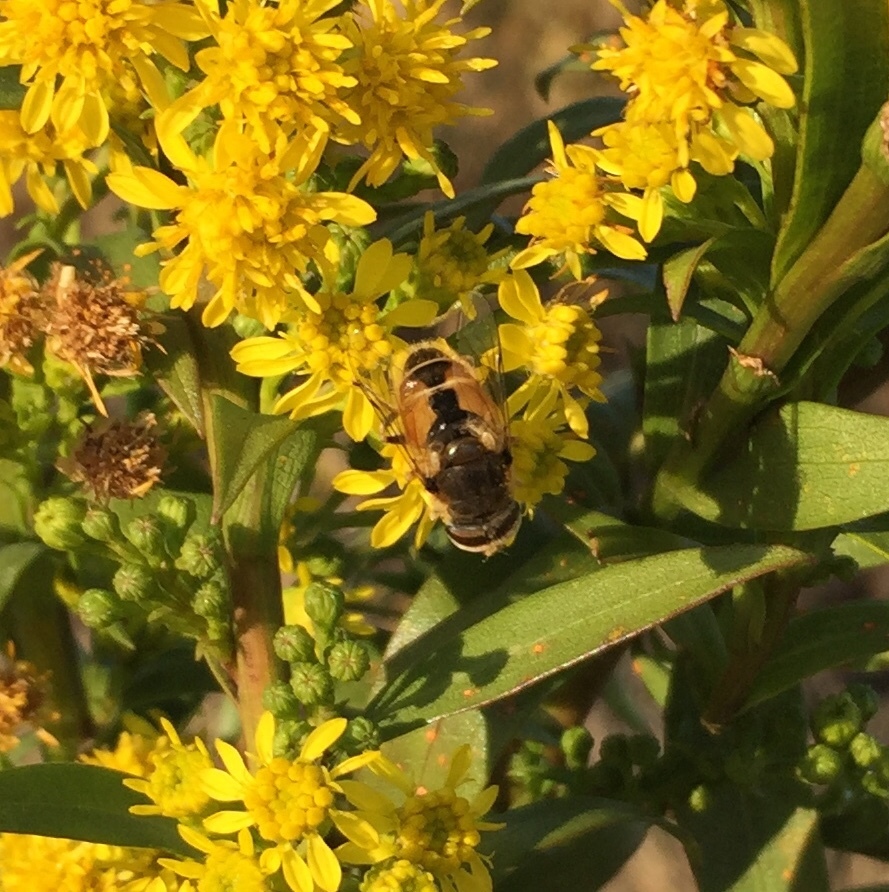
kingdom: Animalia
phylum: Arthropoda
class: Insecta
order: Diptera
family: Syrphidae
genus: Eristalis
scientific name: Eristalis arbustorum
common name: Hover fly
